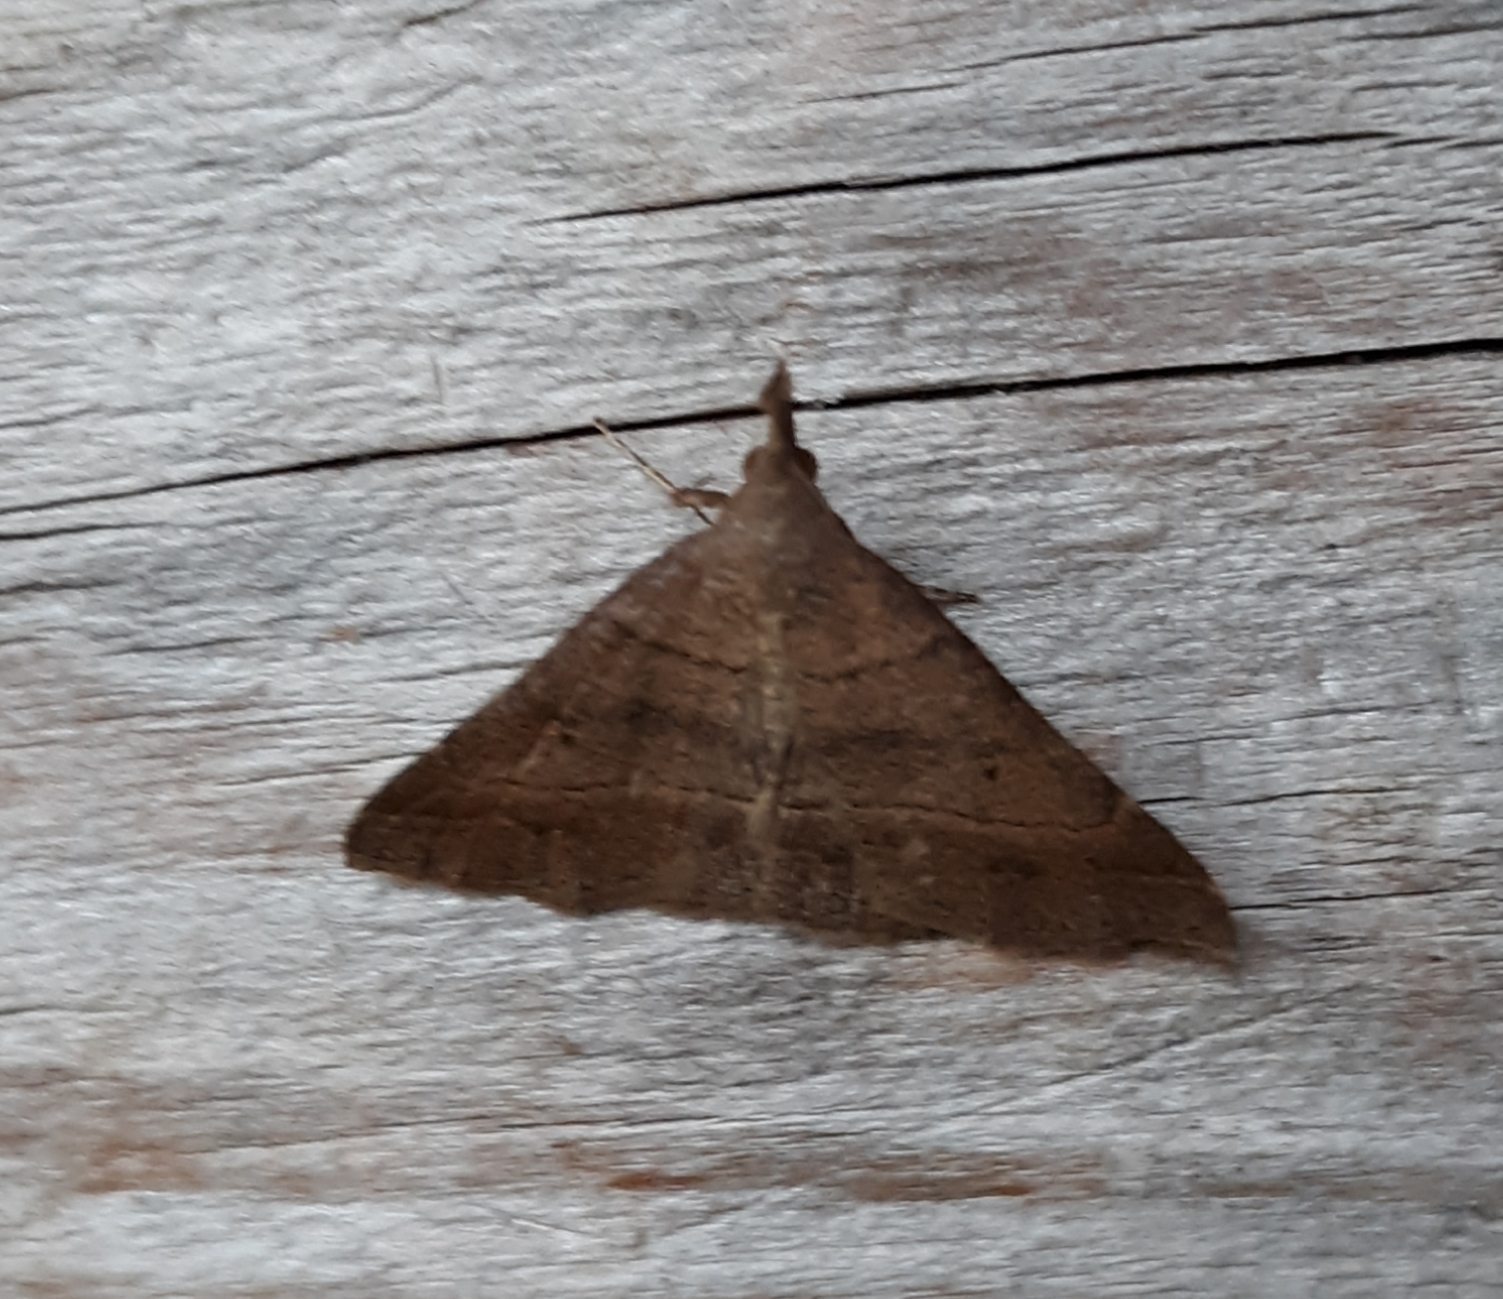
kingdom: Animalia
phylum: Arthropoda
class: Insecta
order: Lepidoptera
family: Erebidae
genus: Renia
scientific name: Renia flavipunctalis
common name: Yellow-spotted renia moth
